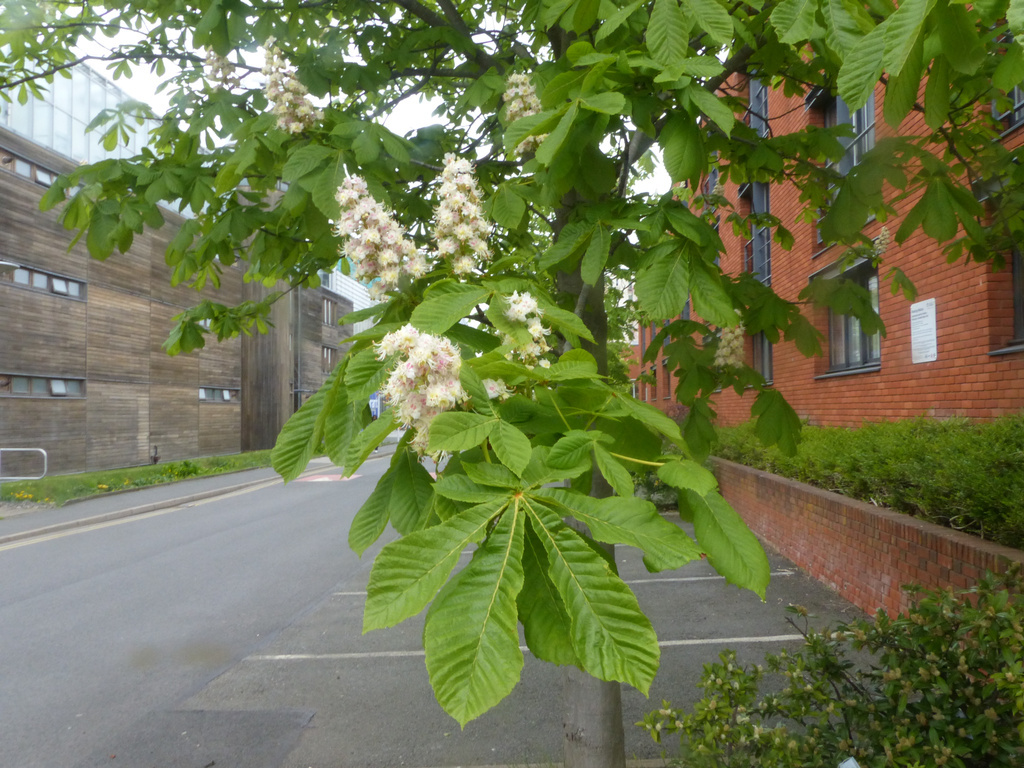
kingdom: Plantae
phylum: Tracheophyta
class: Magnoliopsida
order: Sapindales
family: Sapindaceae
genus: Aesculus
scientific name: Aesculus hippocastanum
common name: Horse-chestnut
